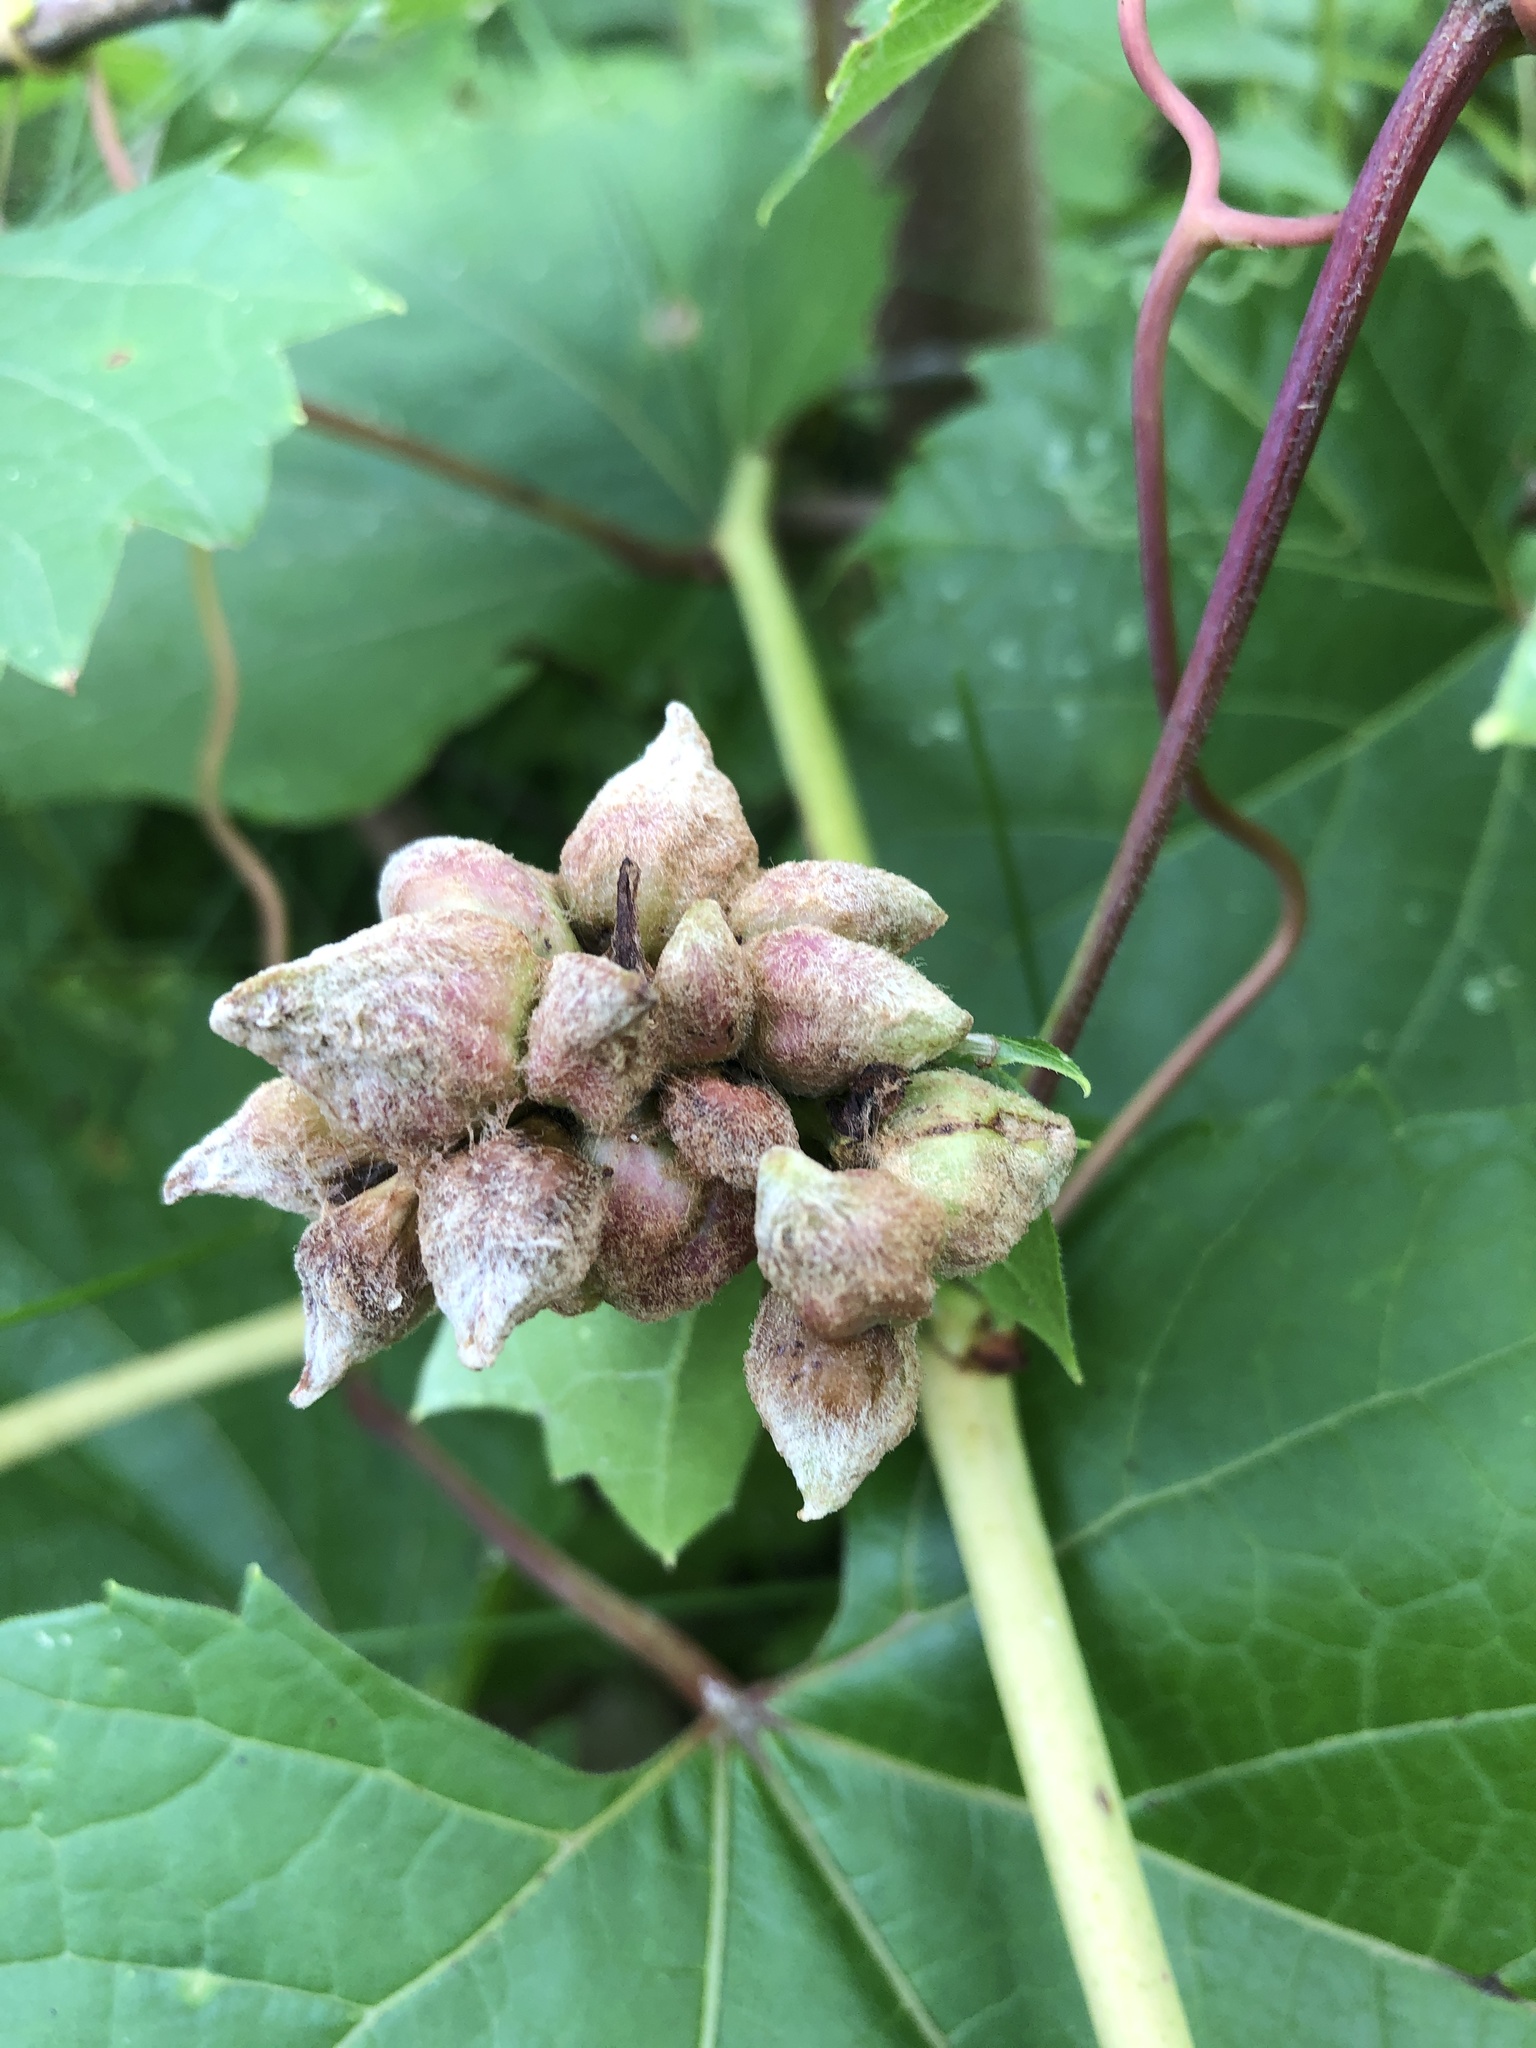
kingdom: Animalia
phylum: Arthropoda
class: Insecta
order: Diptera
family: Cecidomyiidae
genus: Ampelomyia
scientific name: Ampelomyia vitiscoryloides
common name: Grape filbert gall
